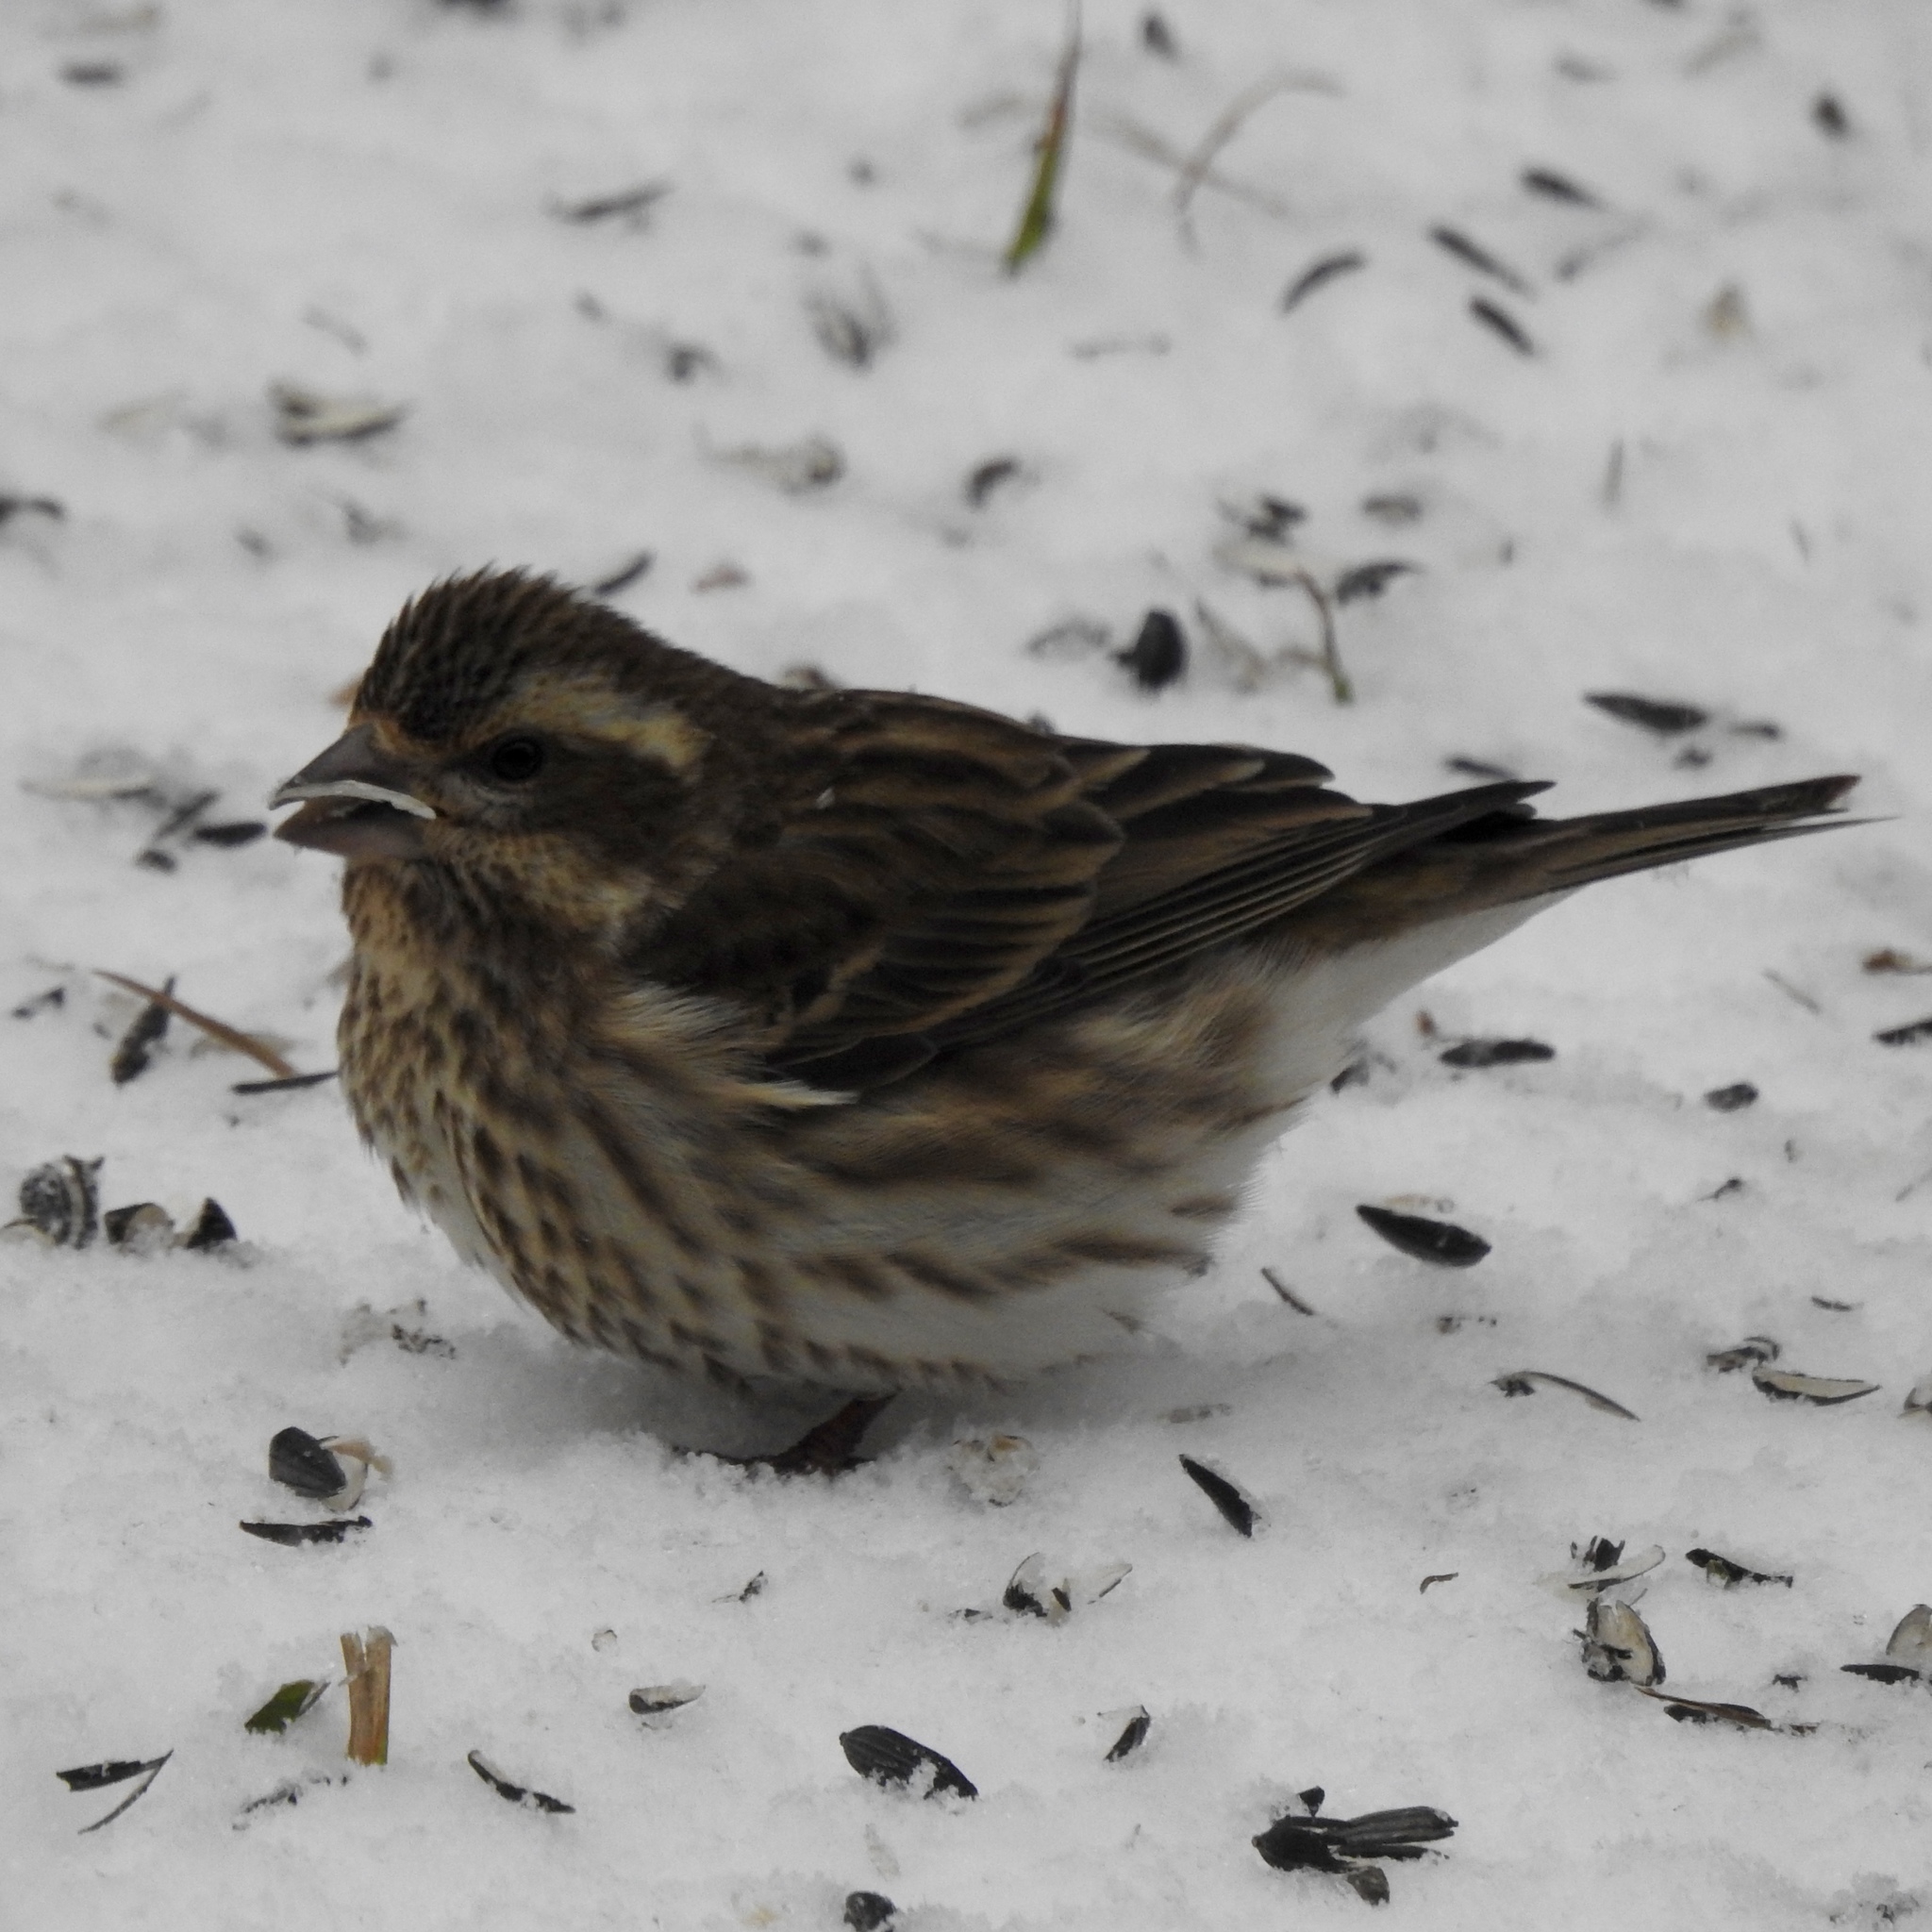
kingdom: Animalia
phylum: Chordata
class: Aves
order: Passeriformes
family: Fringillidae
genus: Haemorhous
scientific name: Haemorhous purpureus
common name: Purple finch
